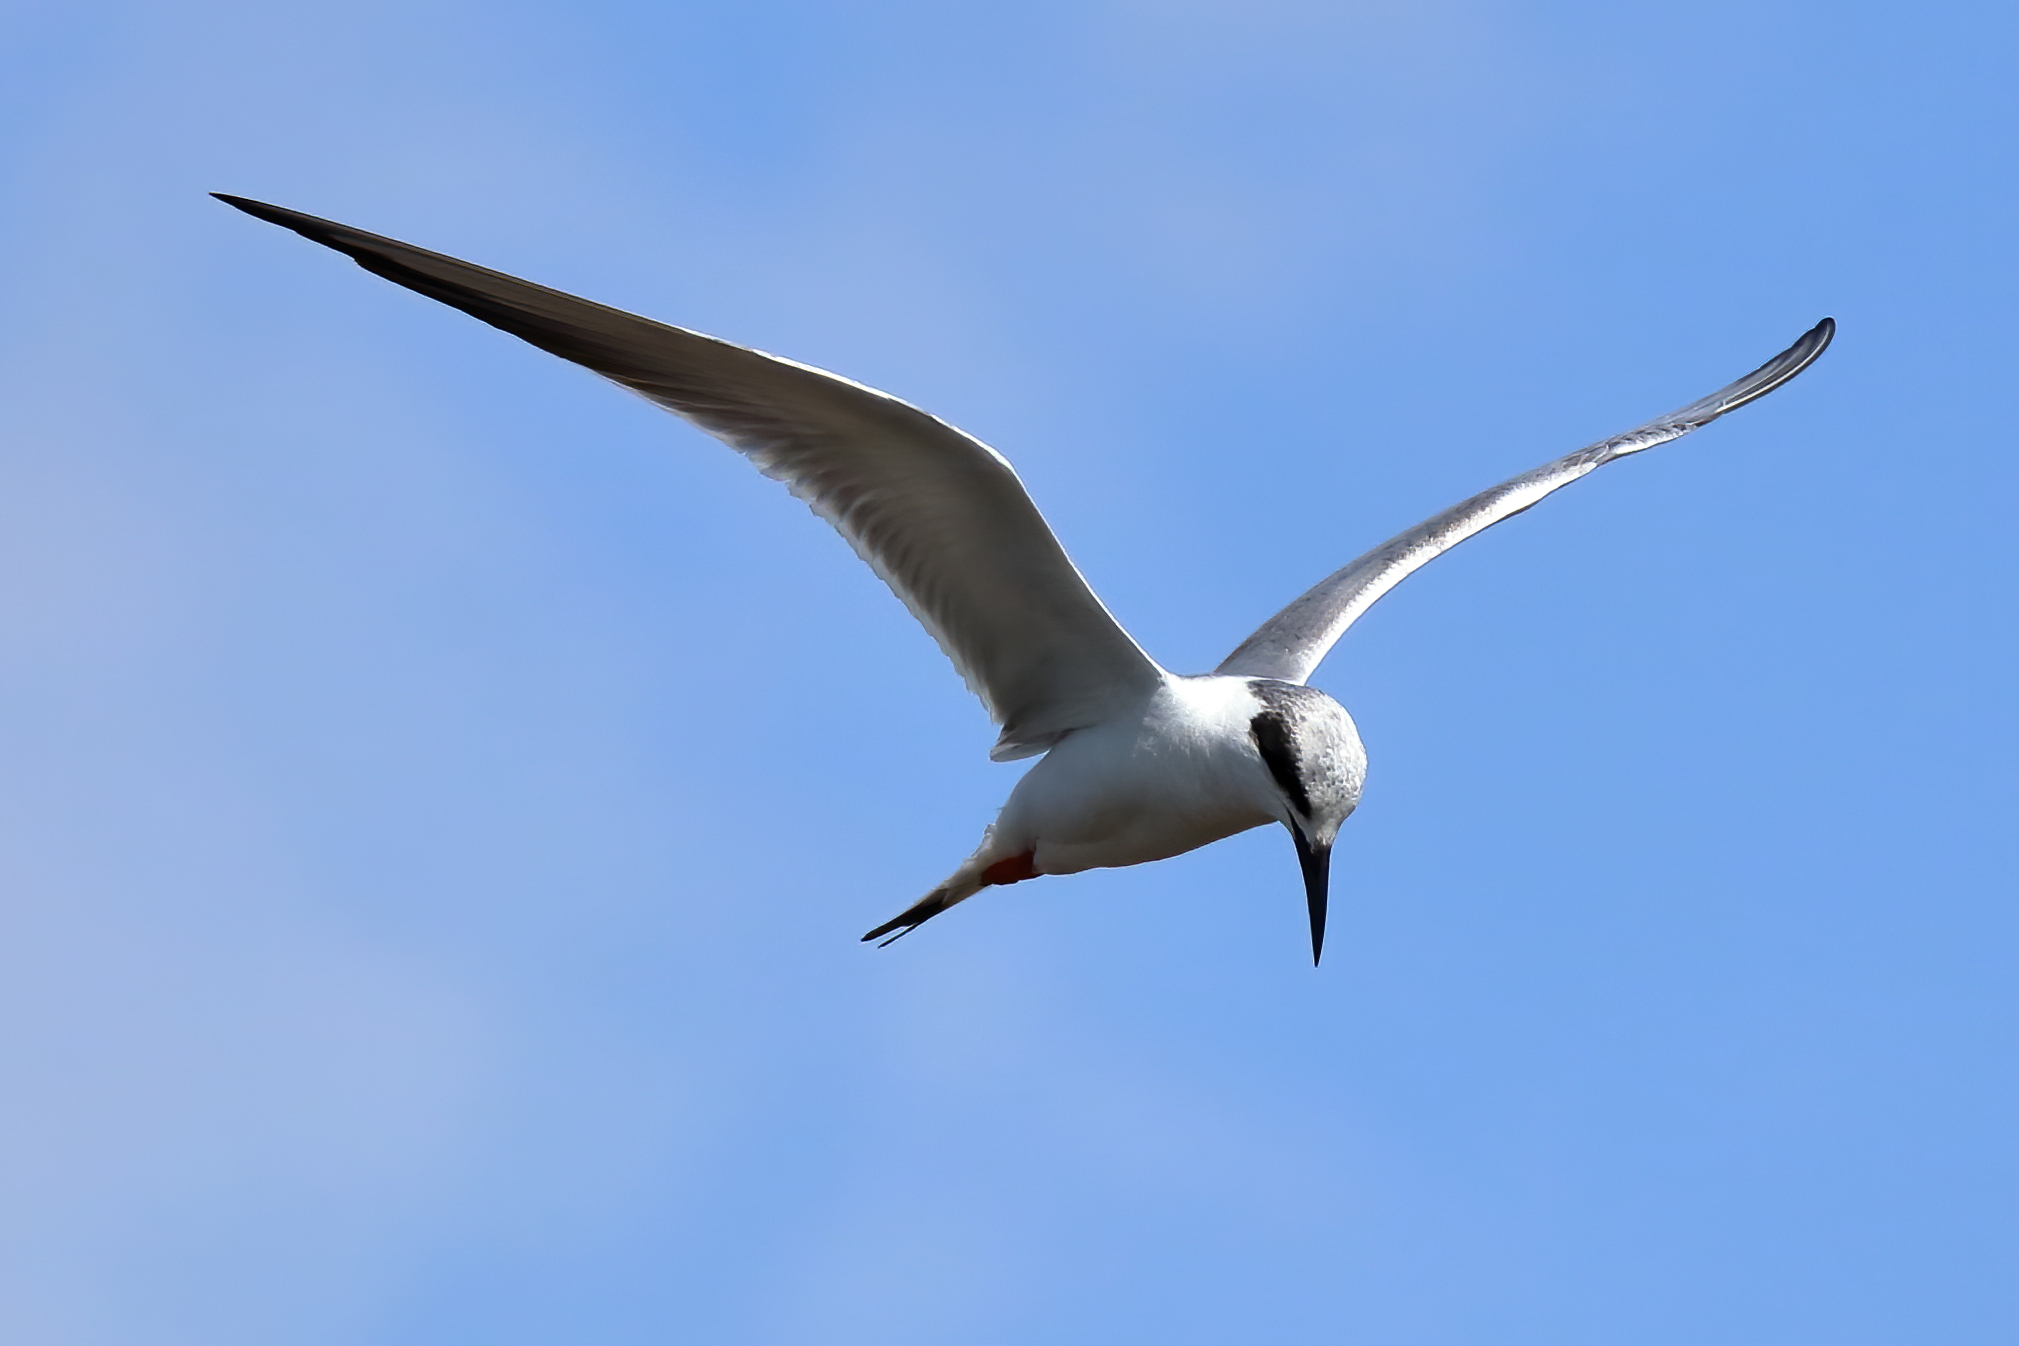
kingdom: Animalia
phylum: Chordata
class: Aves
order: Charadriiformes
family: Laridae
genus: Sterna
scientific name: Sterna forsteri
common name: Forster's tern
